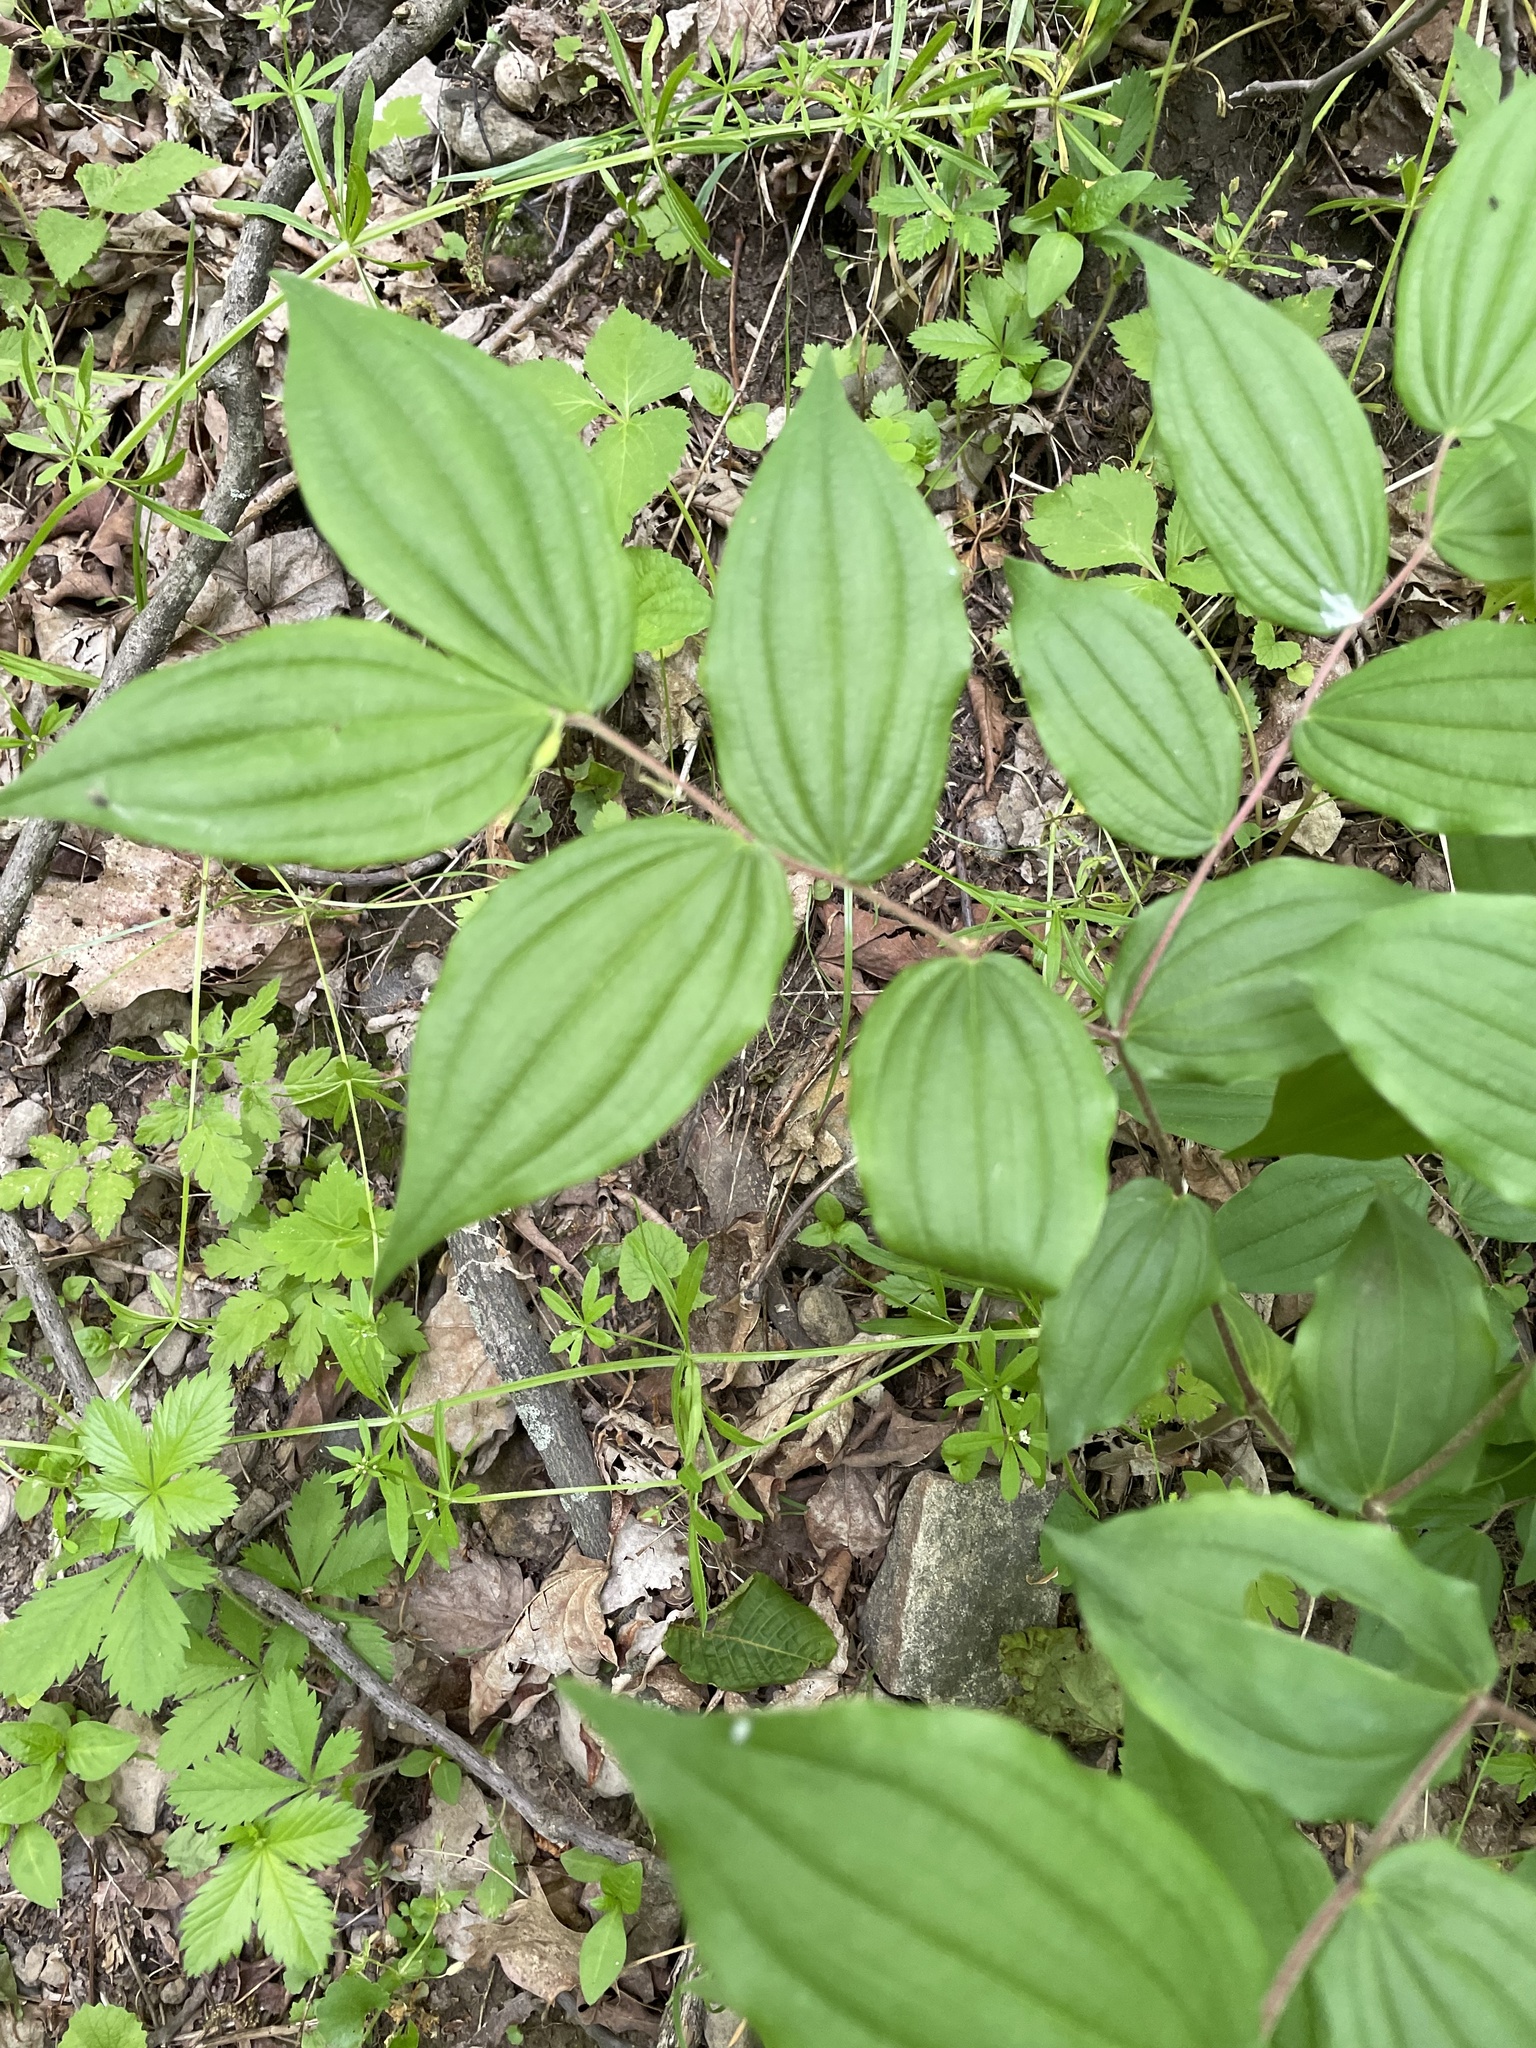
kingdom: Plantae
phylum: Tracheophyta
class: Liliopsida
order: Liliales
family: Liliaceae
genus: Prosartes
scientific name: Prosartes lanuginosa
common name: Hairy mandarin
